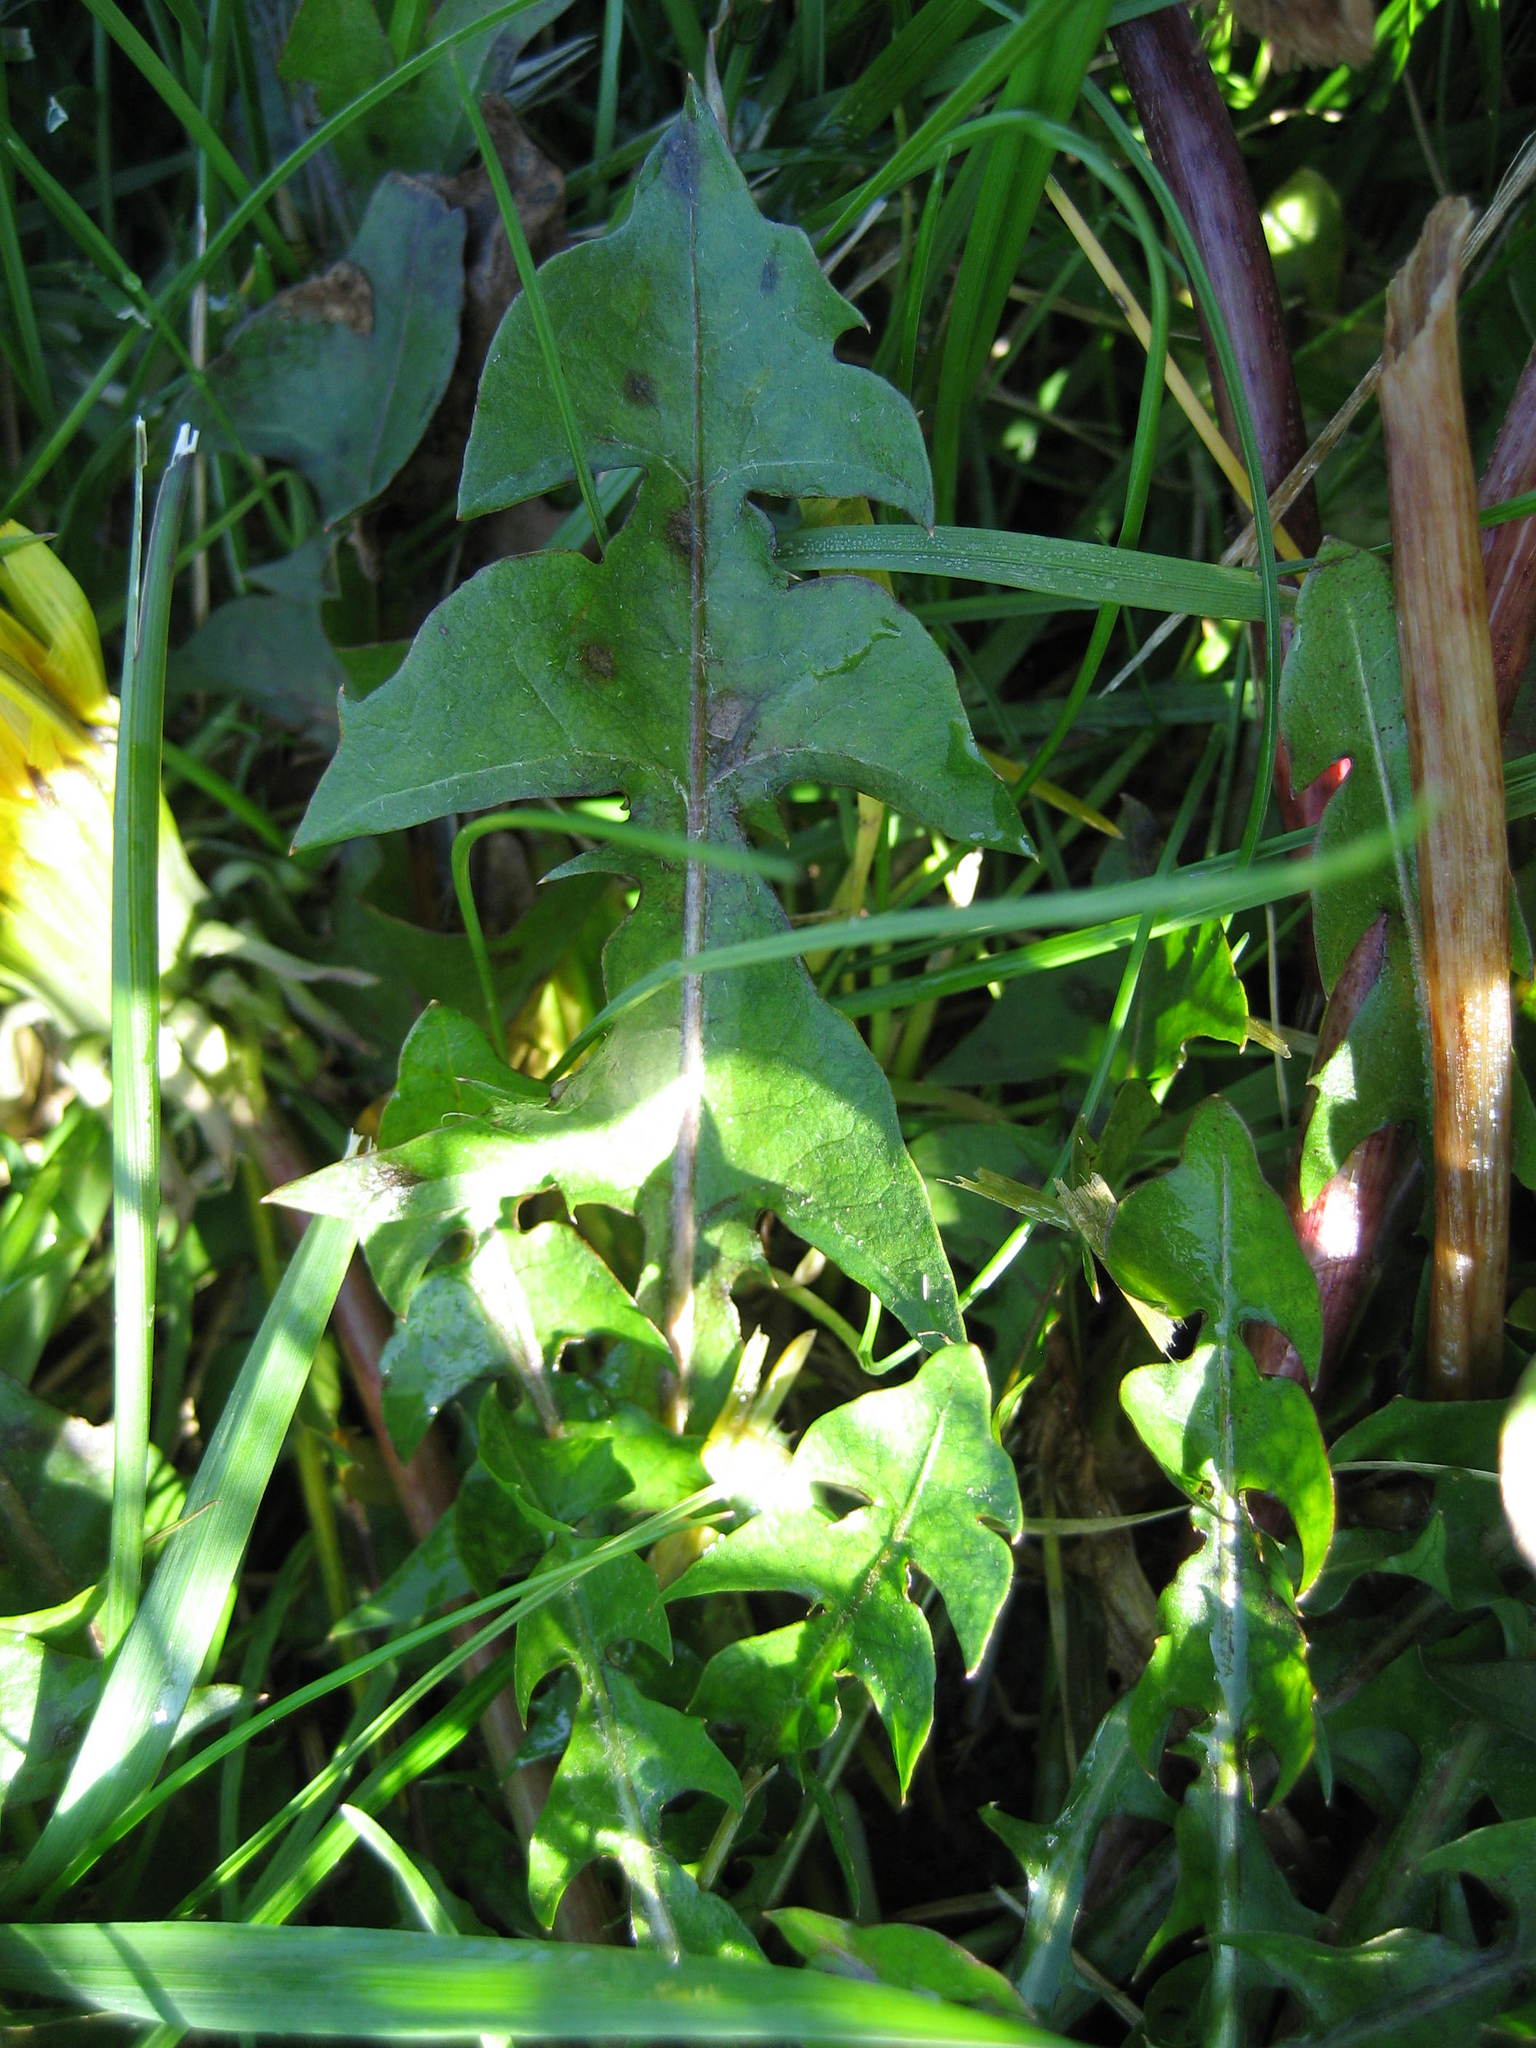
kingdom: Plantae
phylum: Tracheophyta
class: Magnoliopsida
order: Asterales
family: Asteraceae
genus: Taraxacum
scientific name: Taraxacum officinale
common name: Common dandelion
